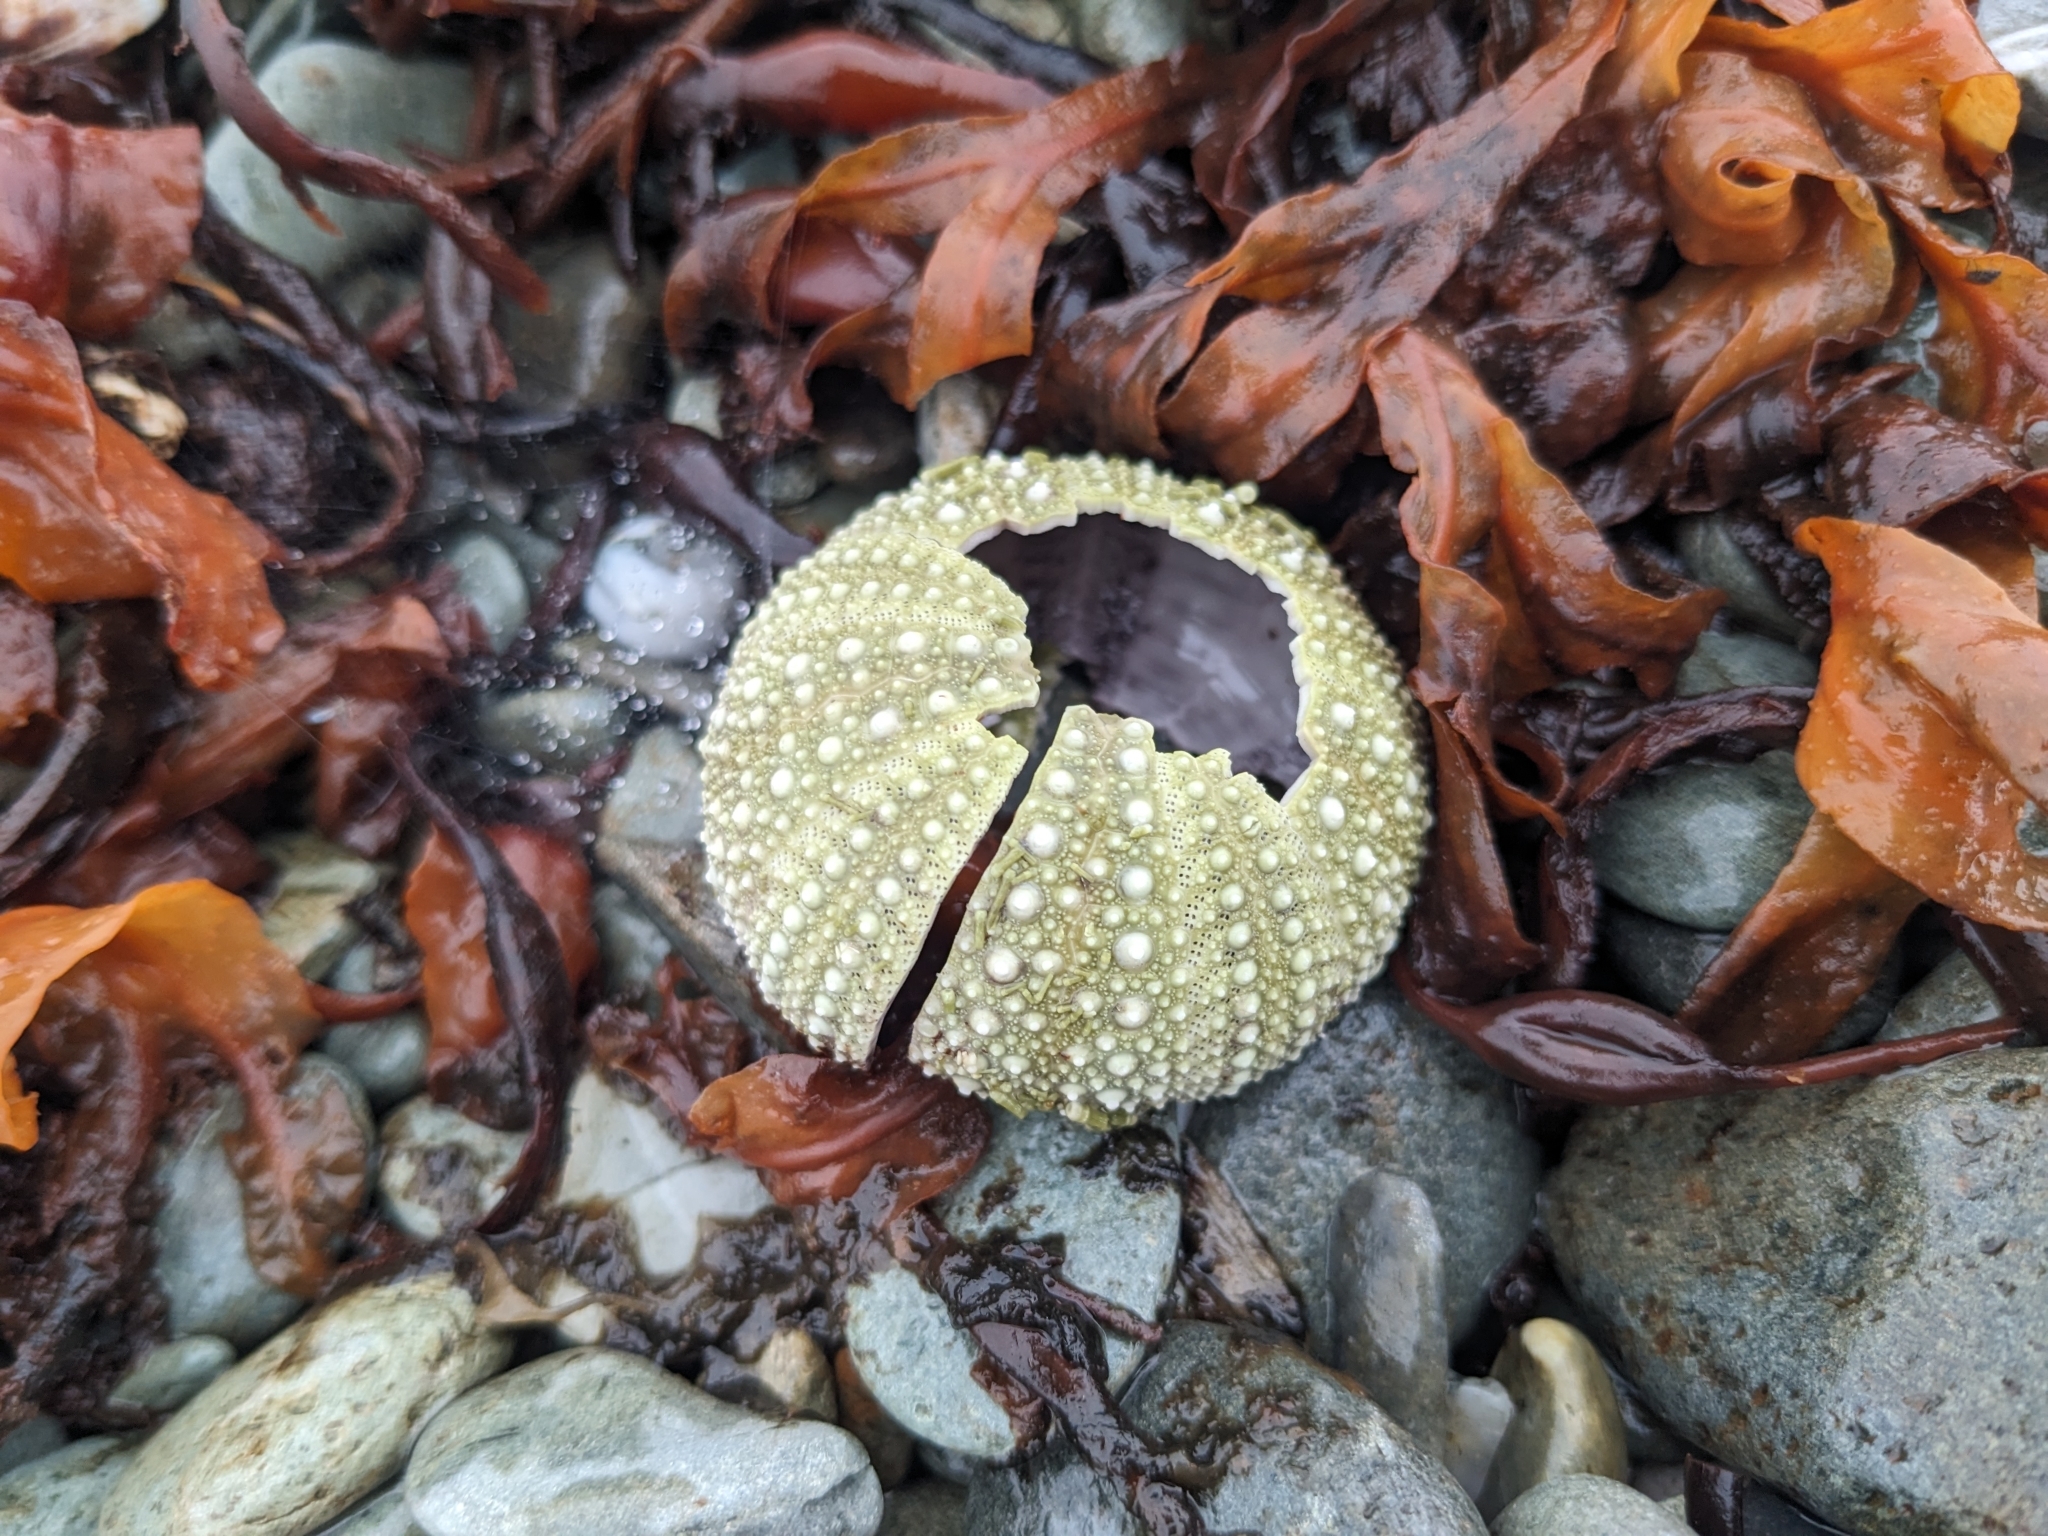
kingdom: Animalia
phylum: Echinodermata
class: Echinoidea
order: Camarodonta
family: Strongylocentrotidae
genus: Strongylocentrotus
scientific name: Strongylocentrotus droebachiensis
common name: Northern sea urchin
